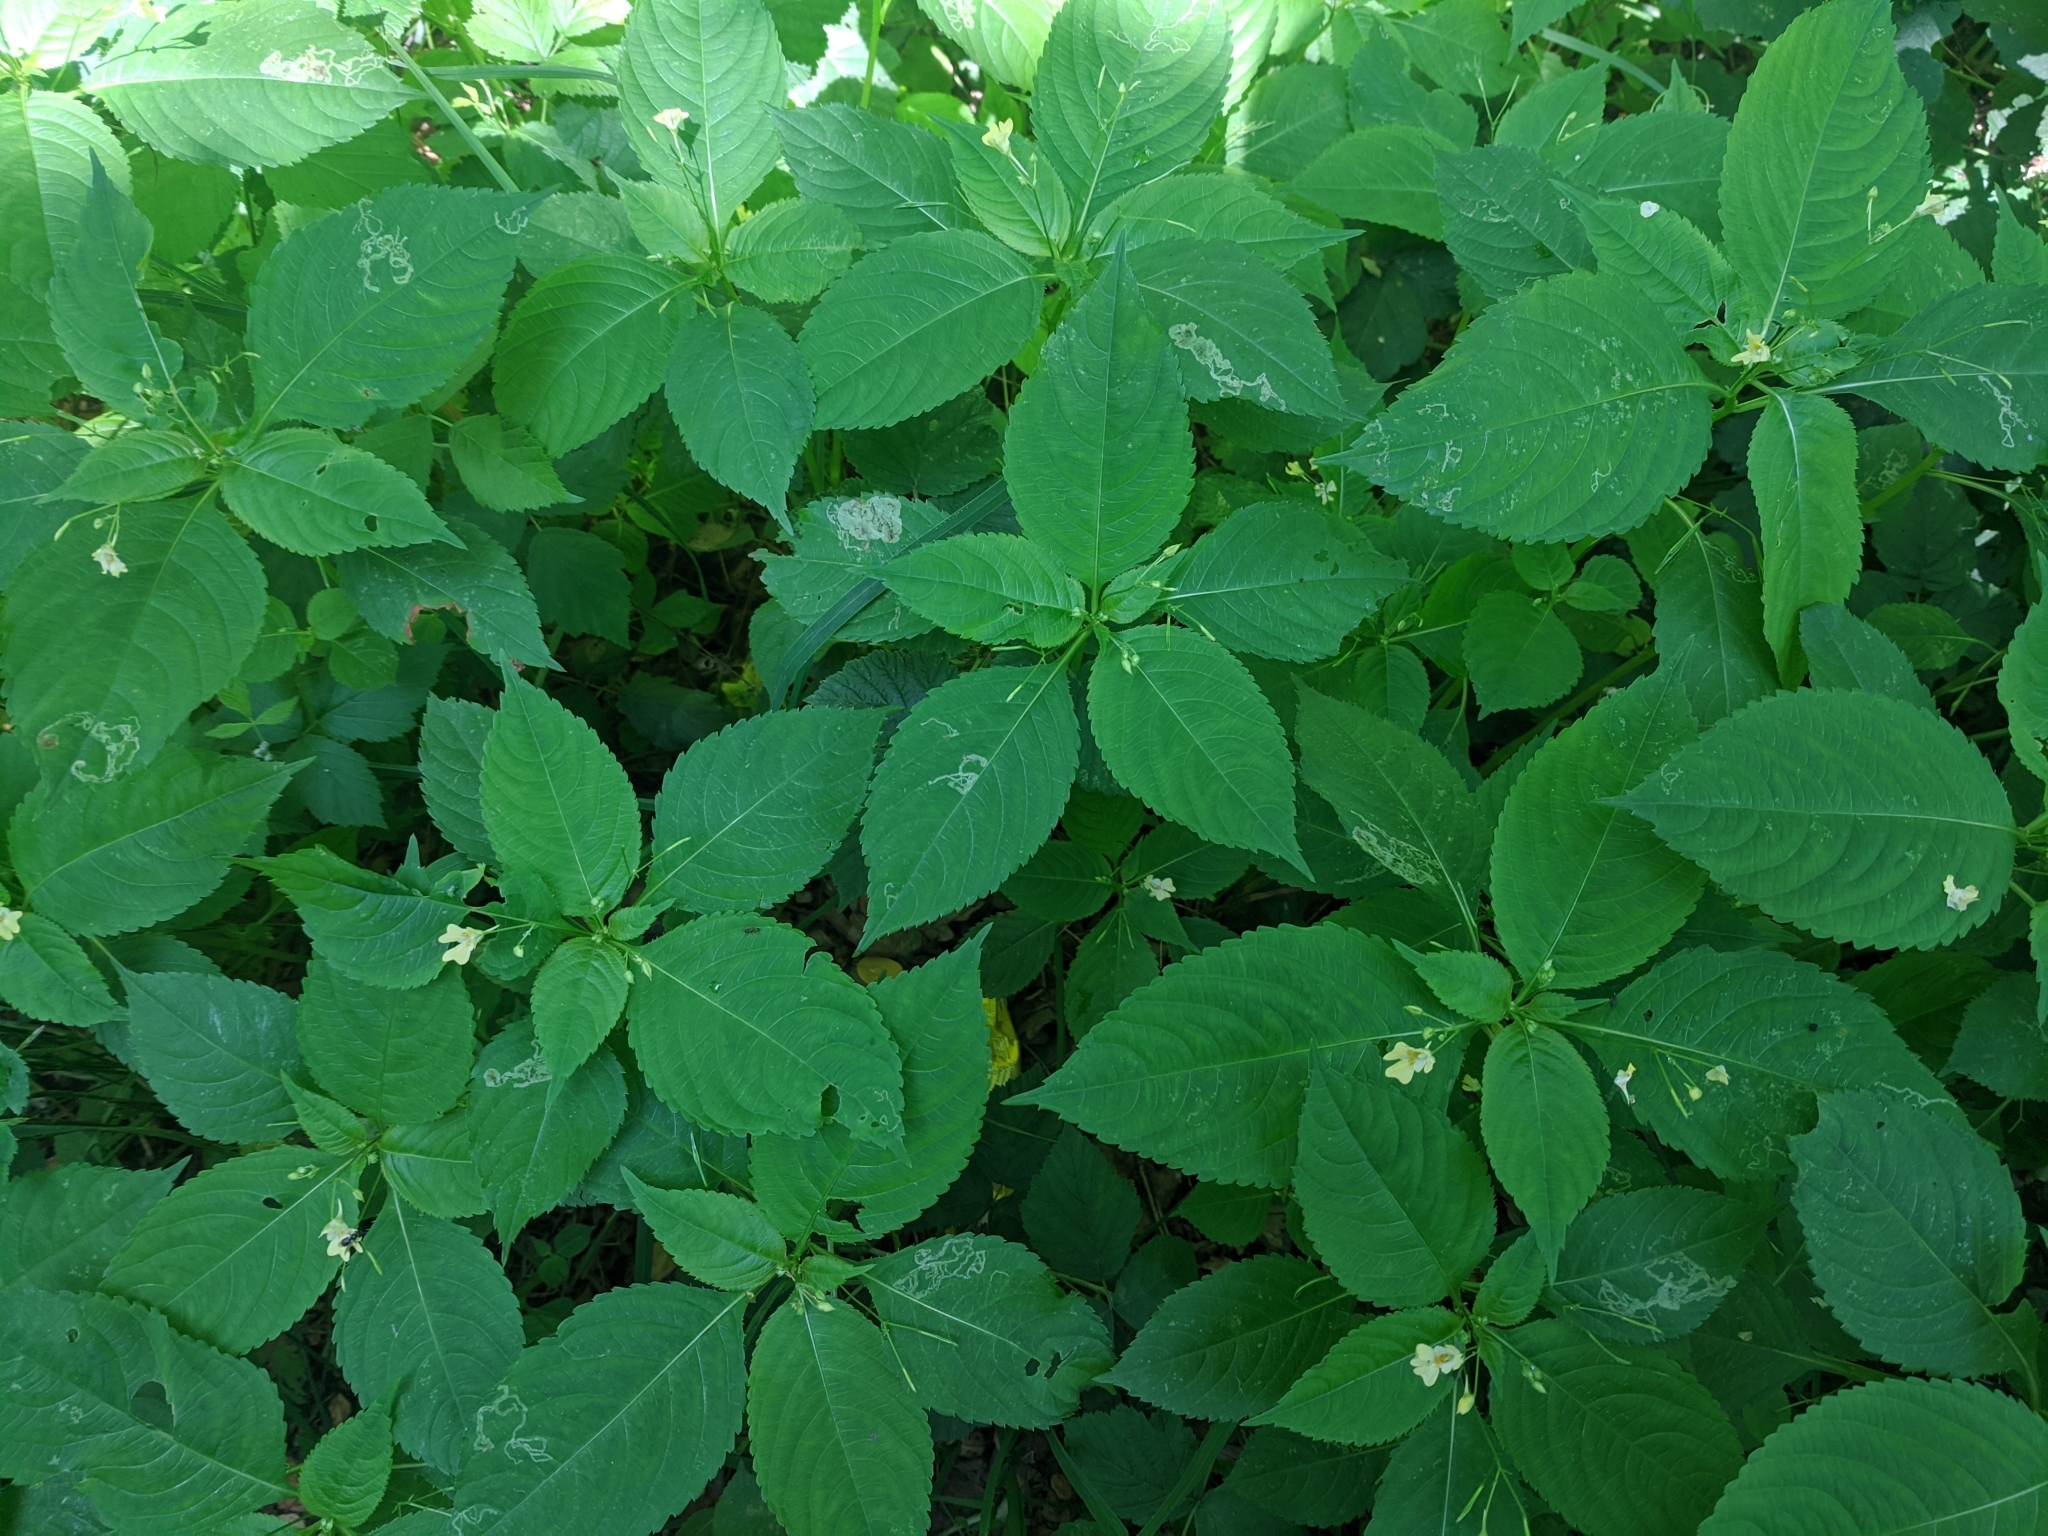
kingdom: Plantae
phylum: Tracheophyta
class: Magnoliopsida
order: Ericales
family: Balsaminaceae
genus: Impatiens
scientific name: Impatiens parviflora
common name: Small balsam
